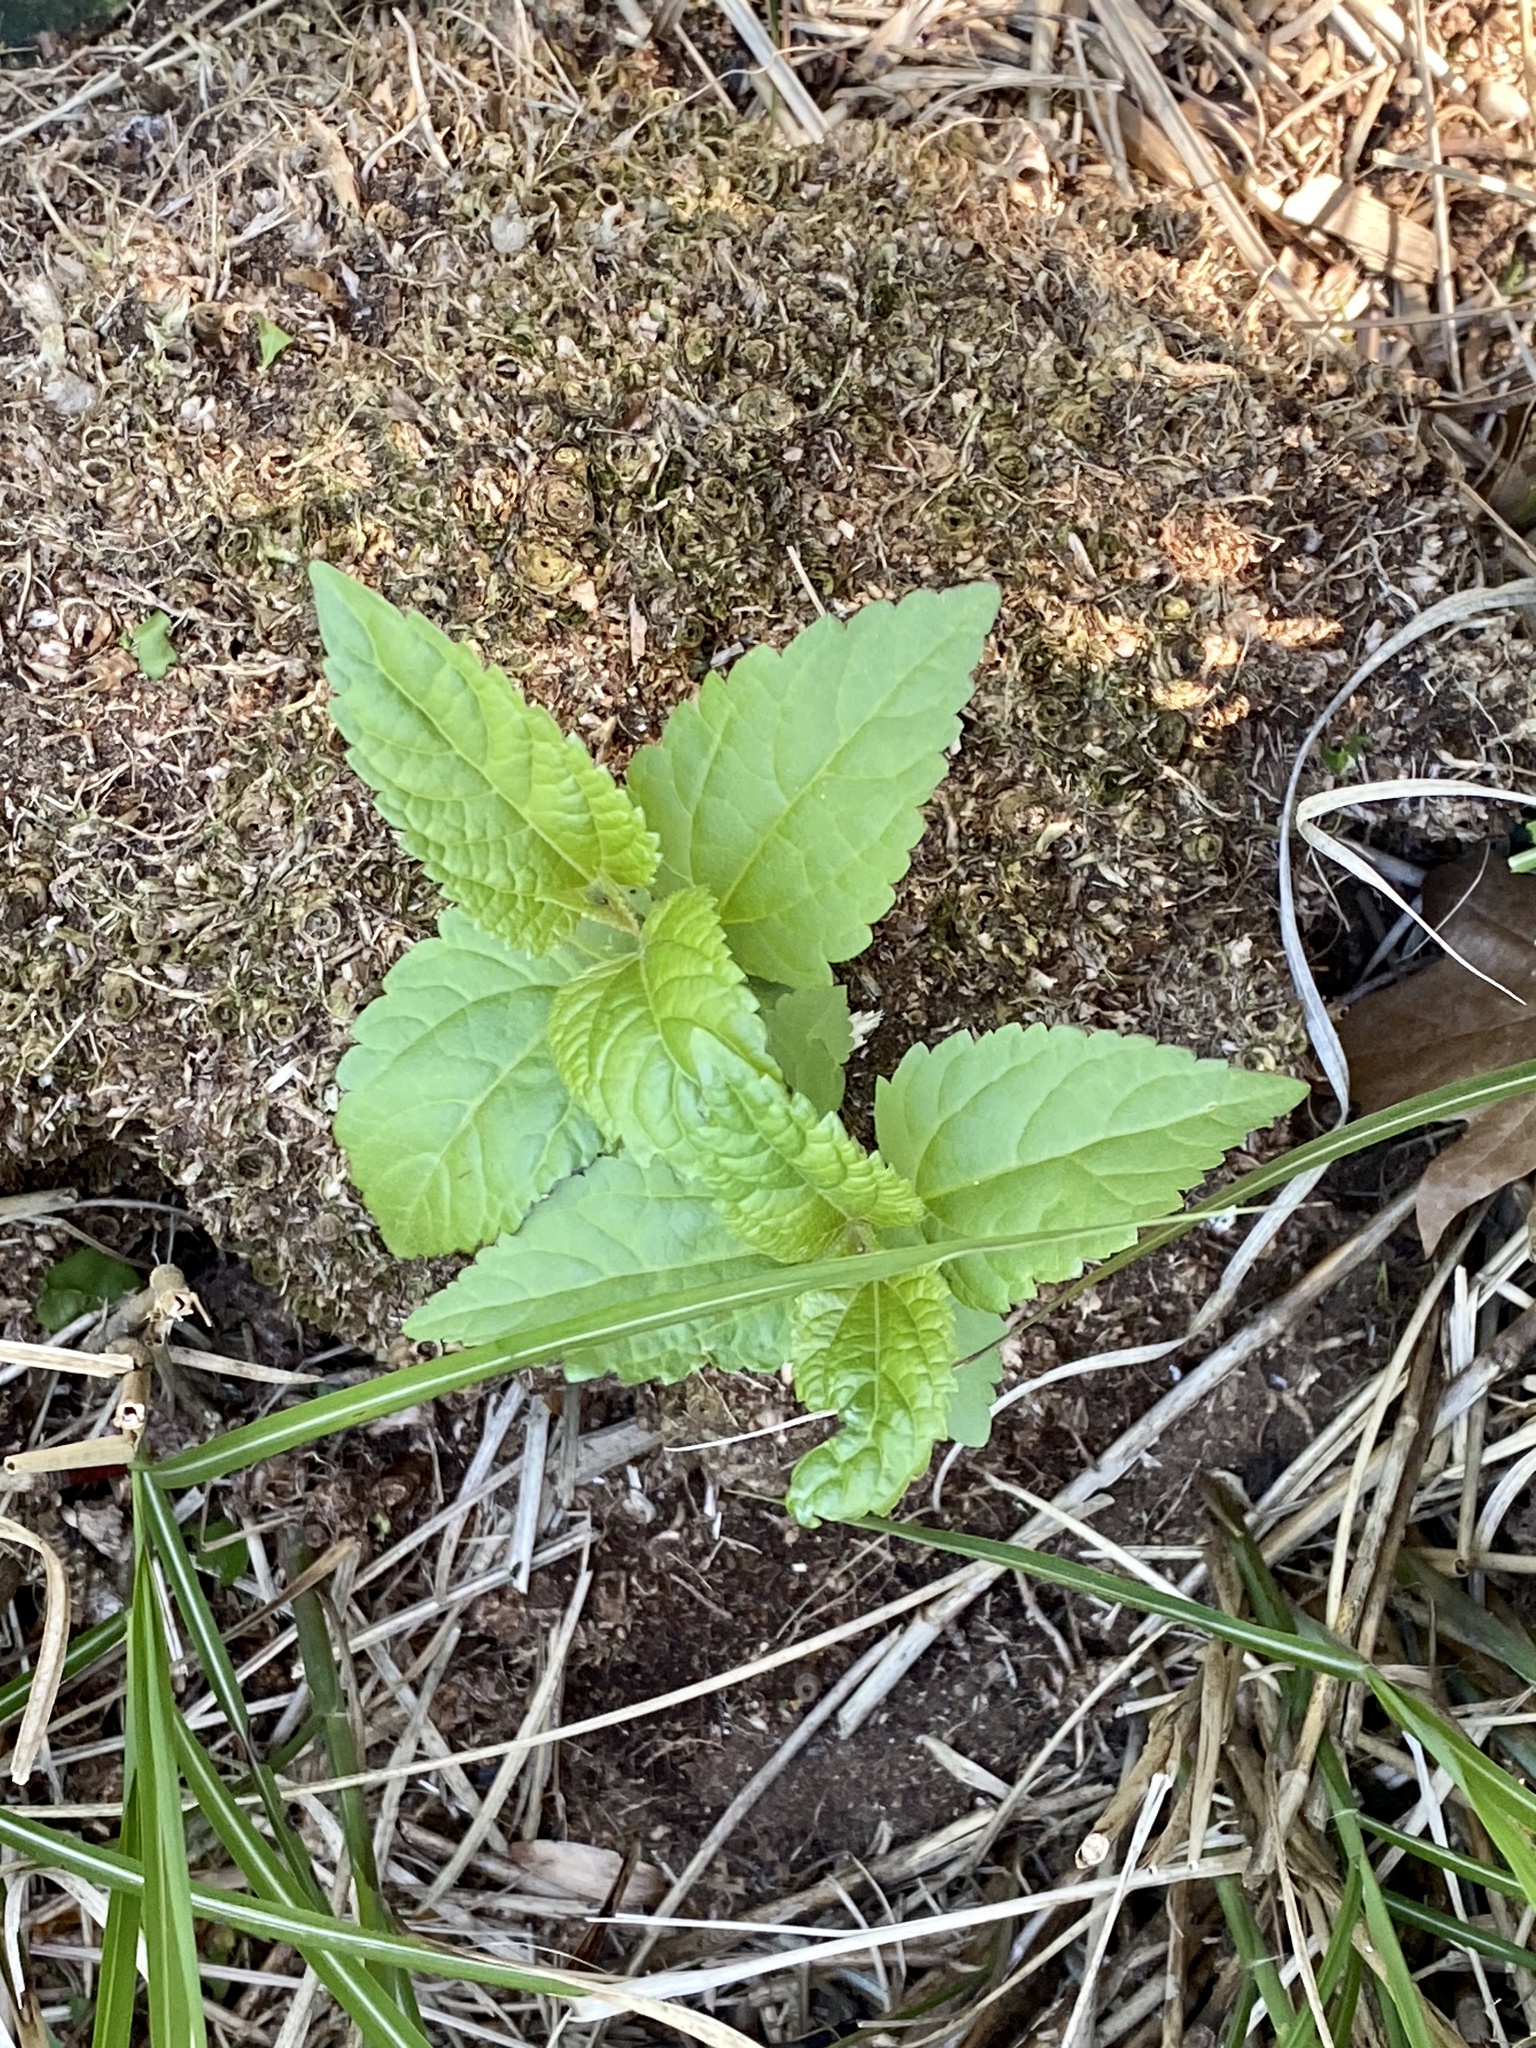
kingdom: Plantae
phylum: Tracheophyta
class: Magnoliopsida
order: Asterales
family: Asteraceae
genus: Ageratina
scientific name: Ageratina altissima
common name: White snakeroot
